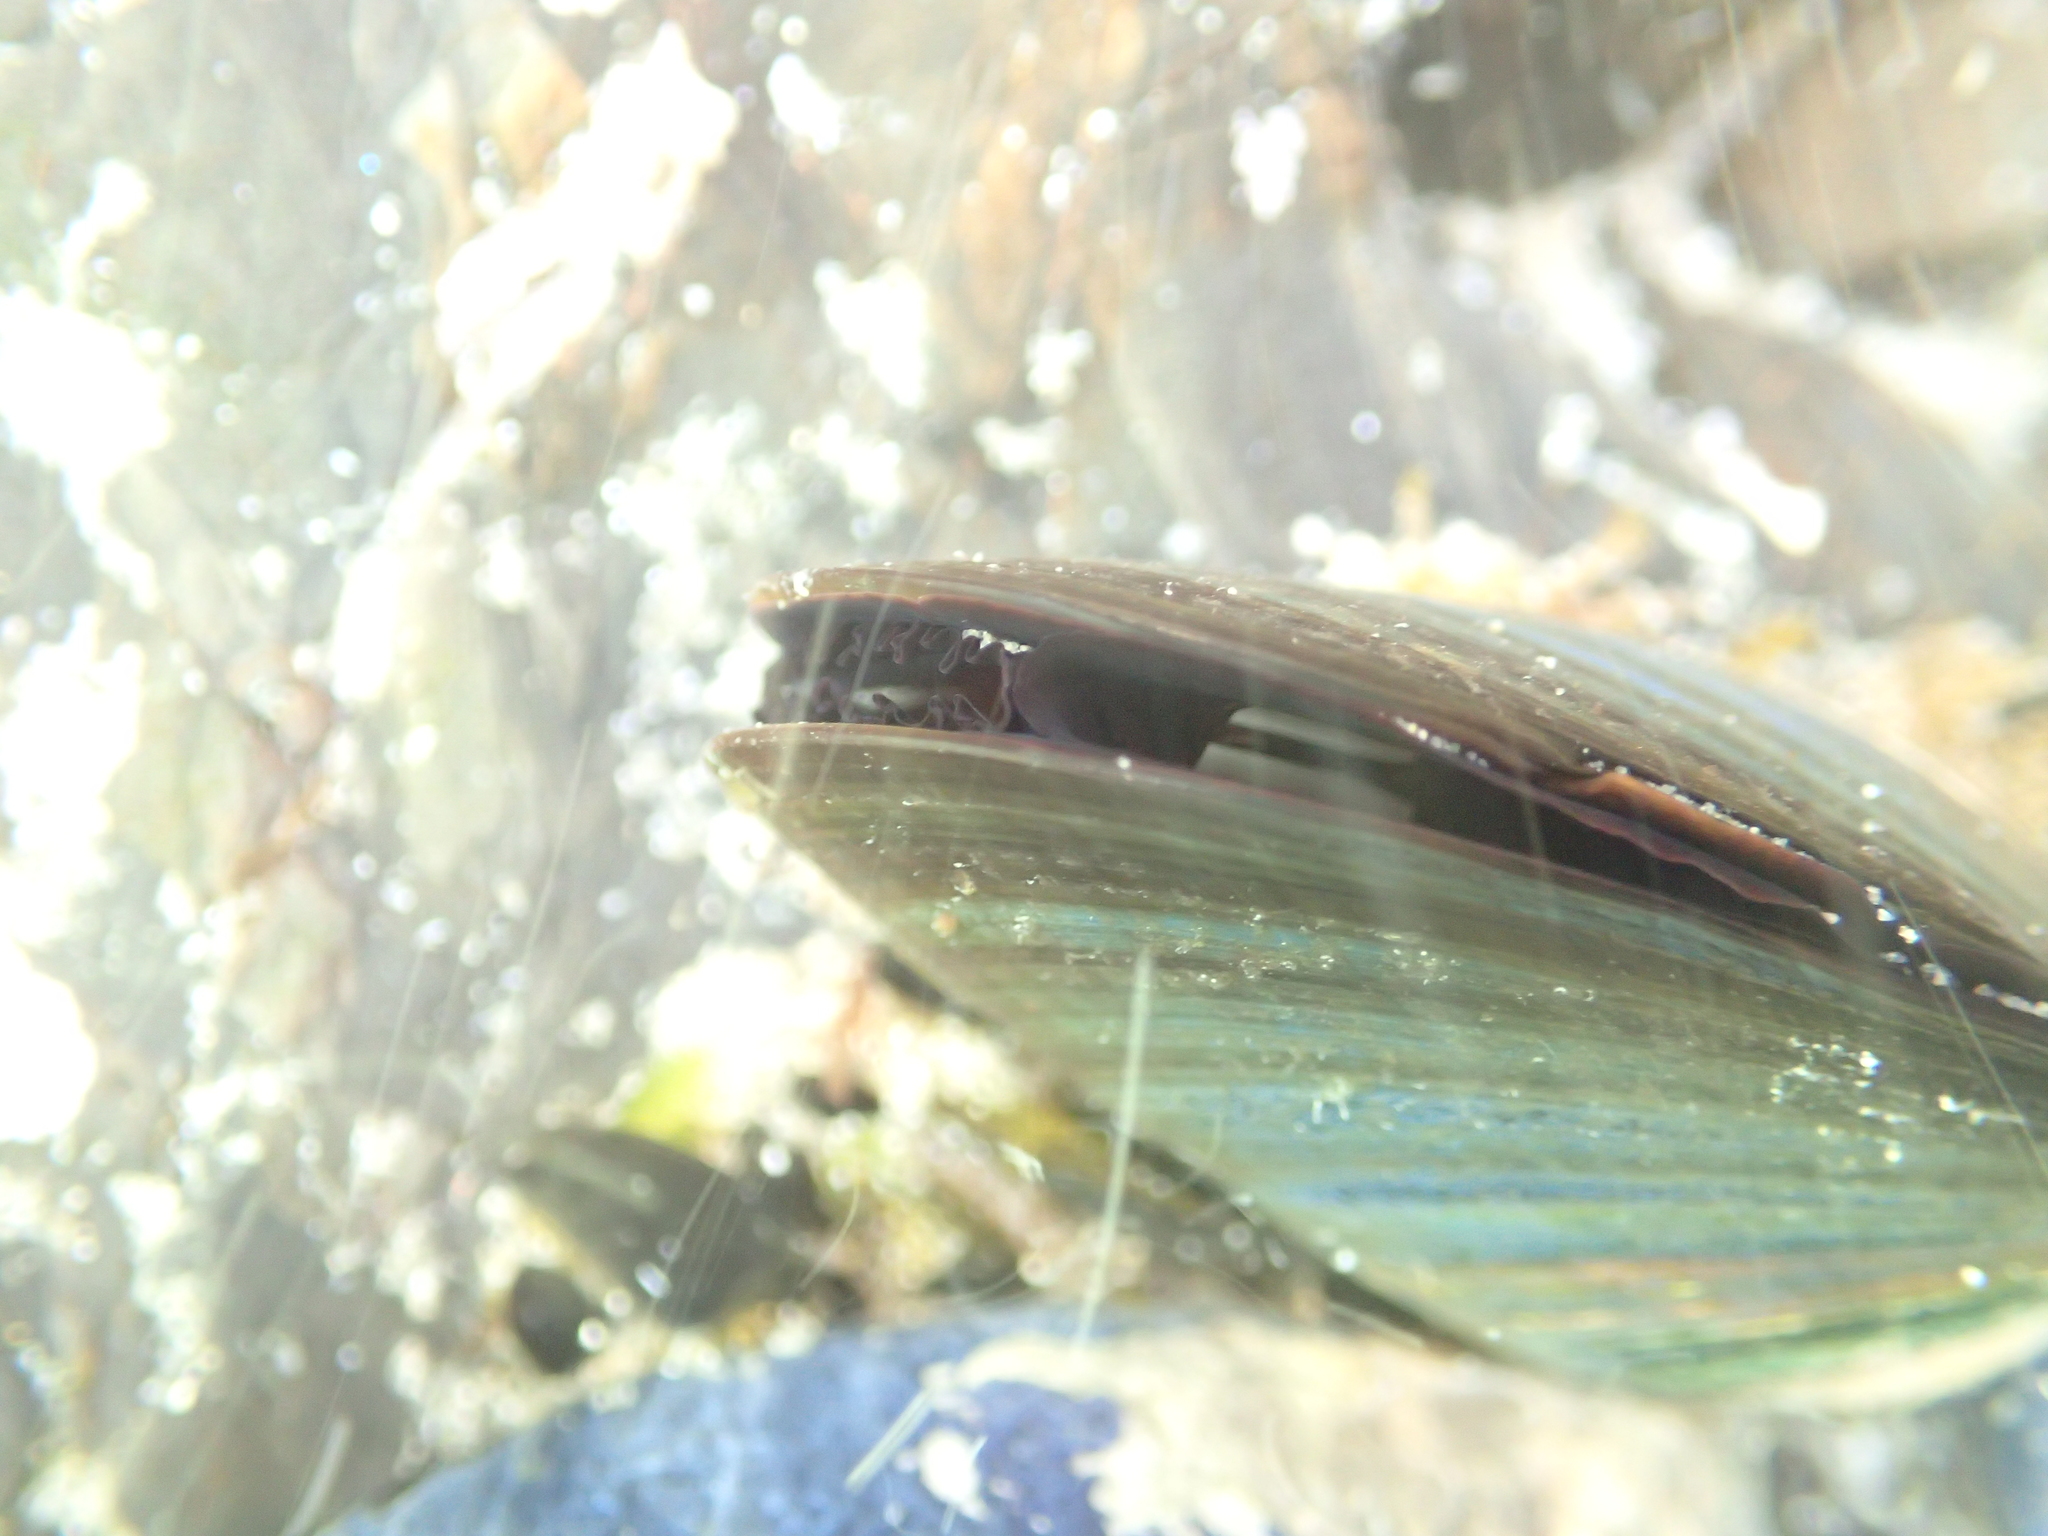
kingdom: Animalia
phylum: Mollusca
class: Bivalvia
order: Mytilida
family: Mytilidae
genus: Perna
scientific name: Perna canaliculus
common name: New zealand greenshelltm
